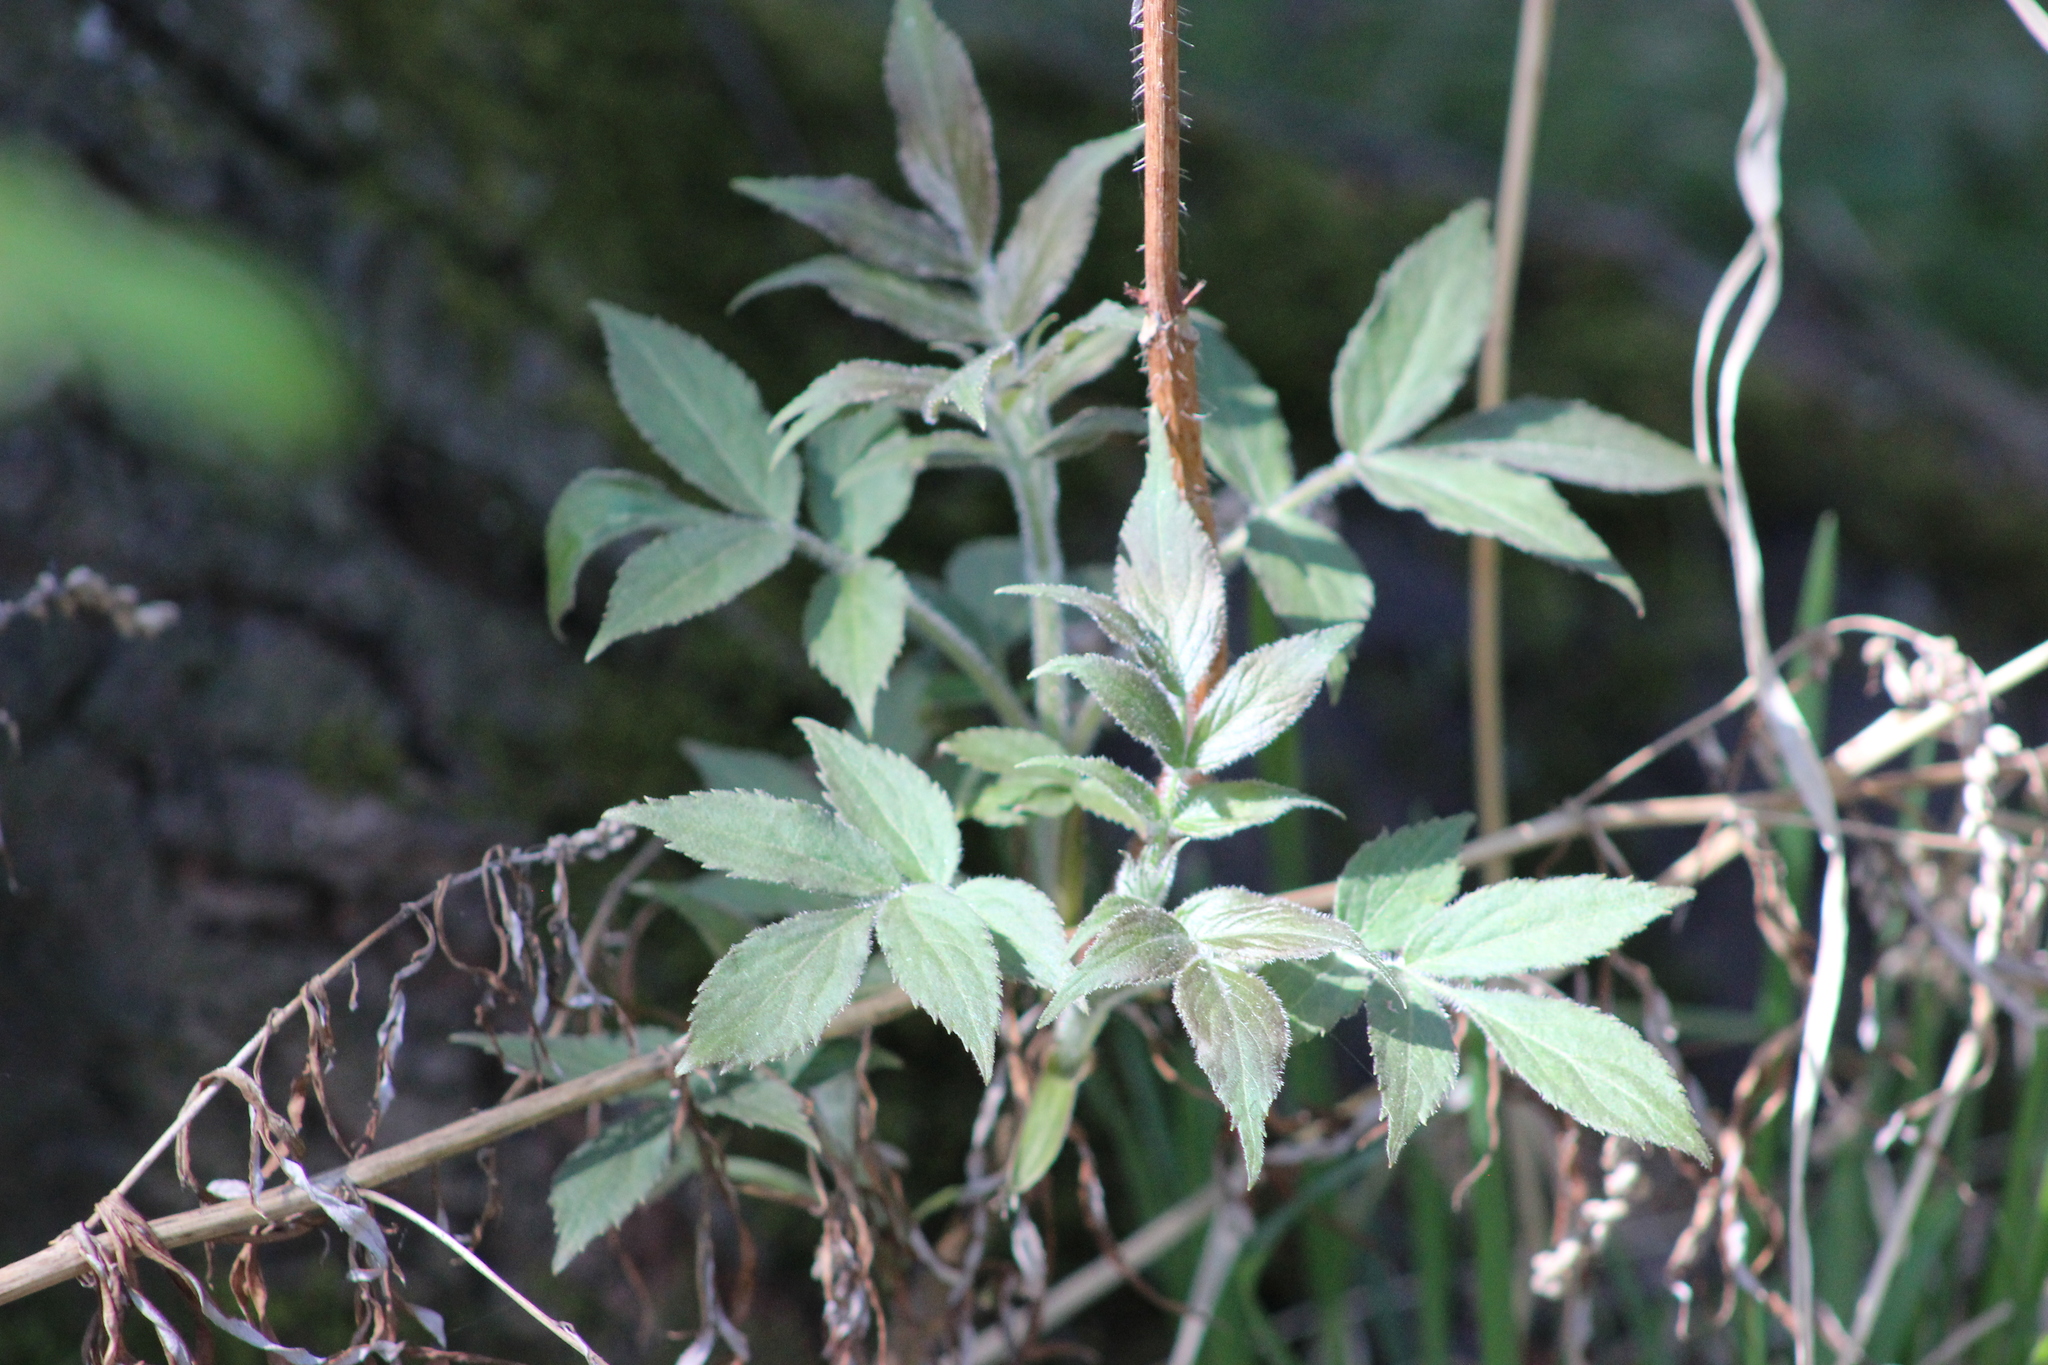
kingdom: Plantae
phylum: Tracheophyta
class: Magnoliopsida
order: Dipsacales
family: Viburnaceae
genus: Sambucus
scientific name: Sambucus sibirica
